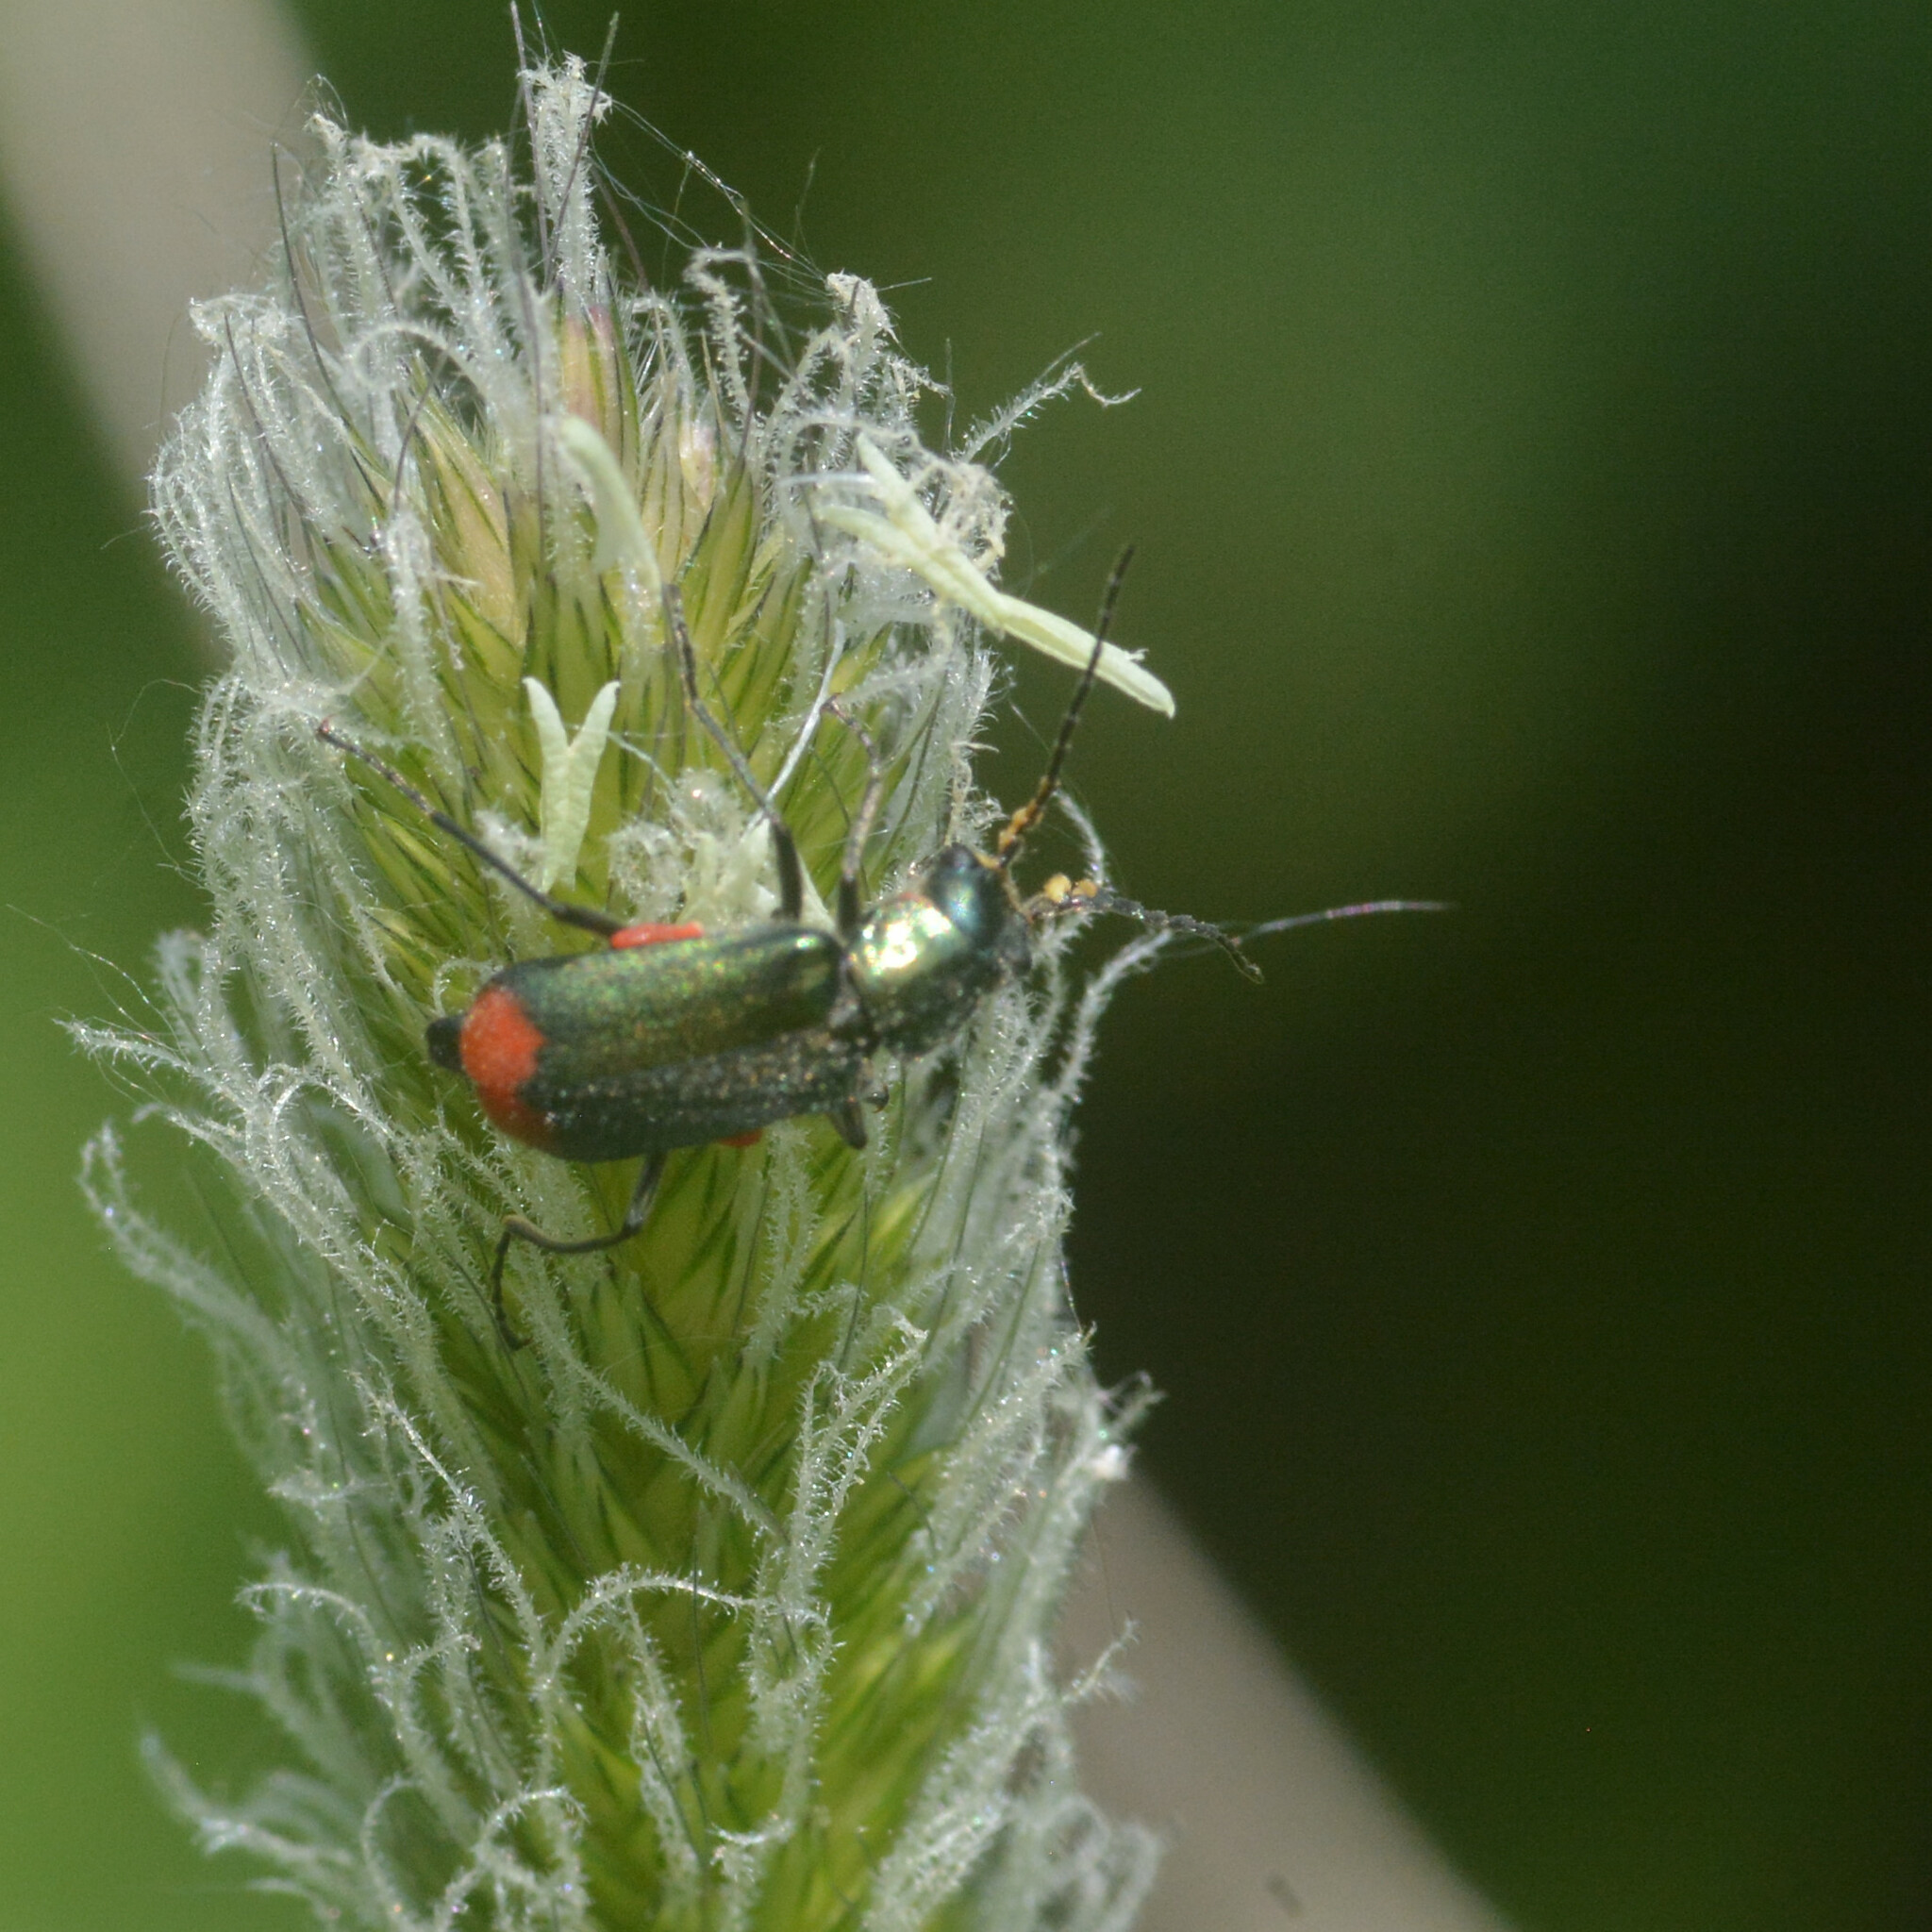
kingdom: Animalia
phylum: Arthropoda
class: Insecta
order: Coleoptera
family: Melyridae
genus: Malachius
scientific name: Malachius bipustulatus
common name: Malachite beetle
